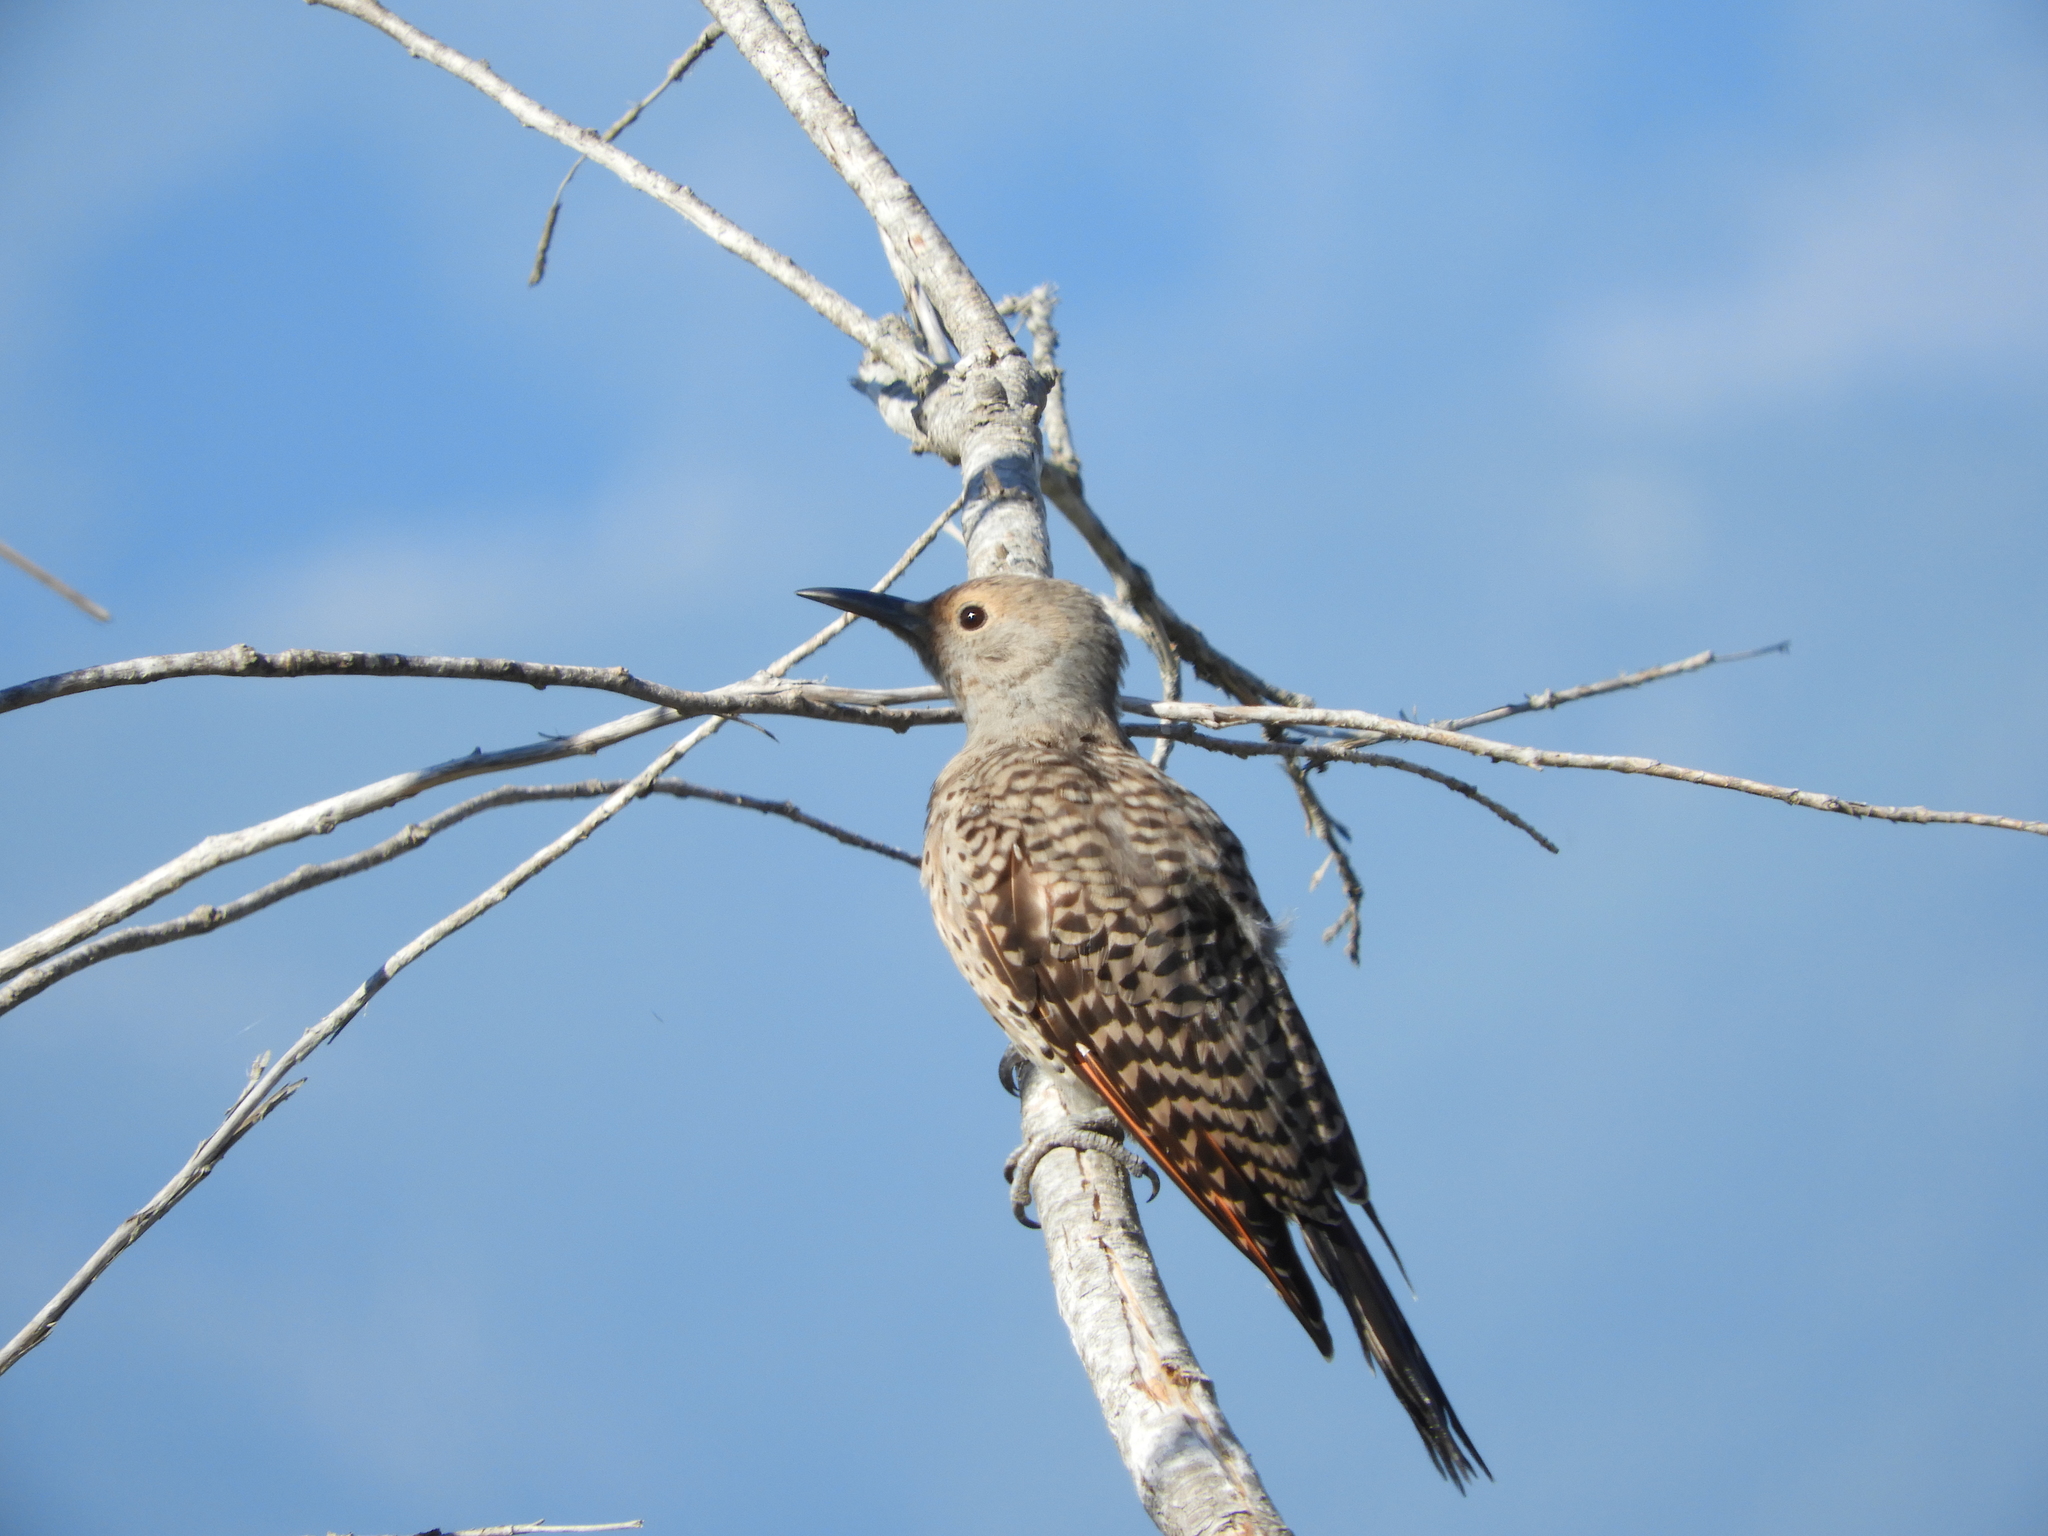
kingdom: Animalia
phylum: Chordata
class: Aves
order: Piciformes
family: Picidae
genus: Colaptes
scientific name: Colaptes auratus
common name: Northern flicker
